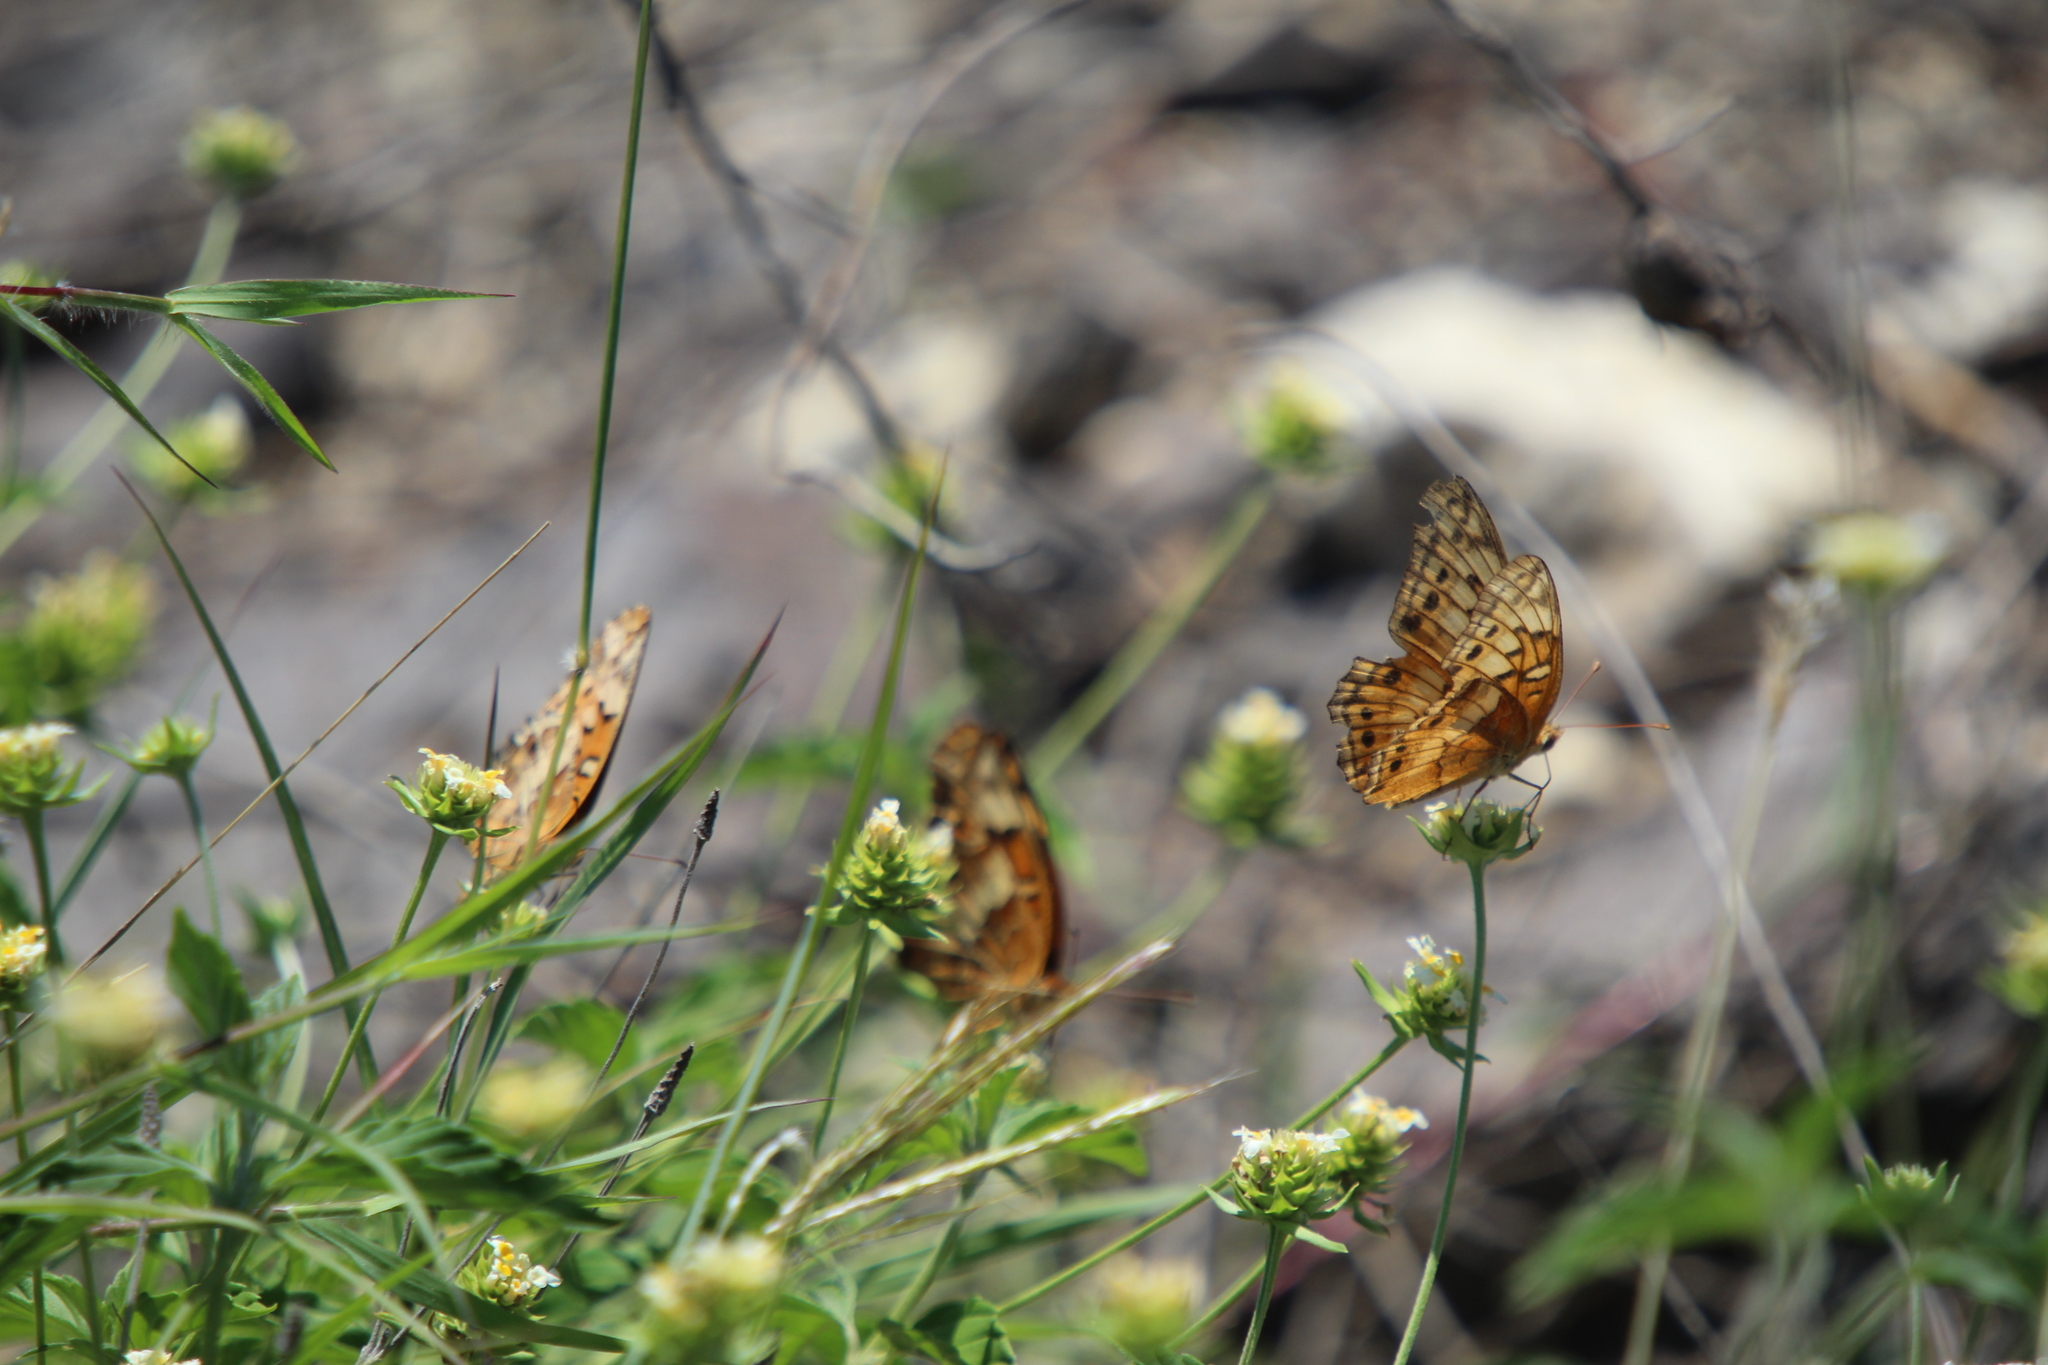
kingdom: Animalia
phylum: Arthropoda
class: Insecta
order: Lepidoptera
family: Nymphalidae
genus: Euptoieta
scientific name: Euptoieta claudia
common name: Variegated fritillary
